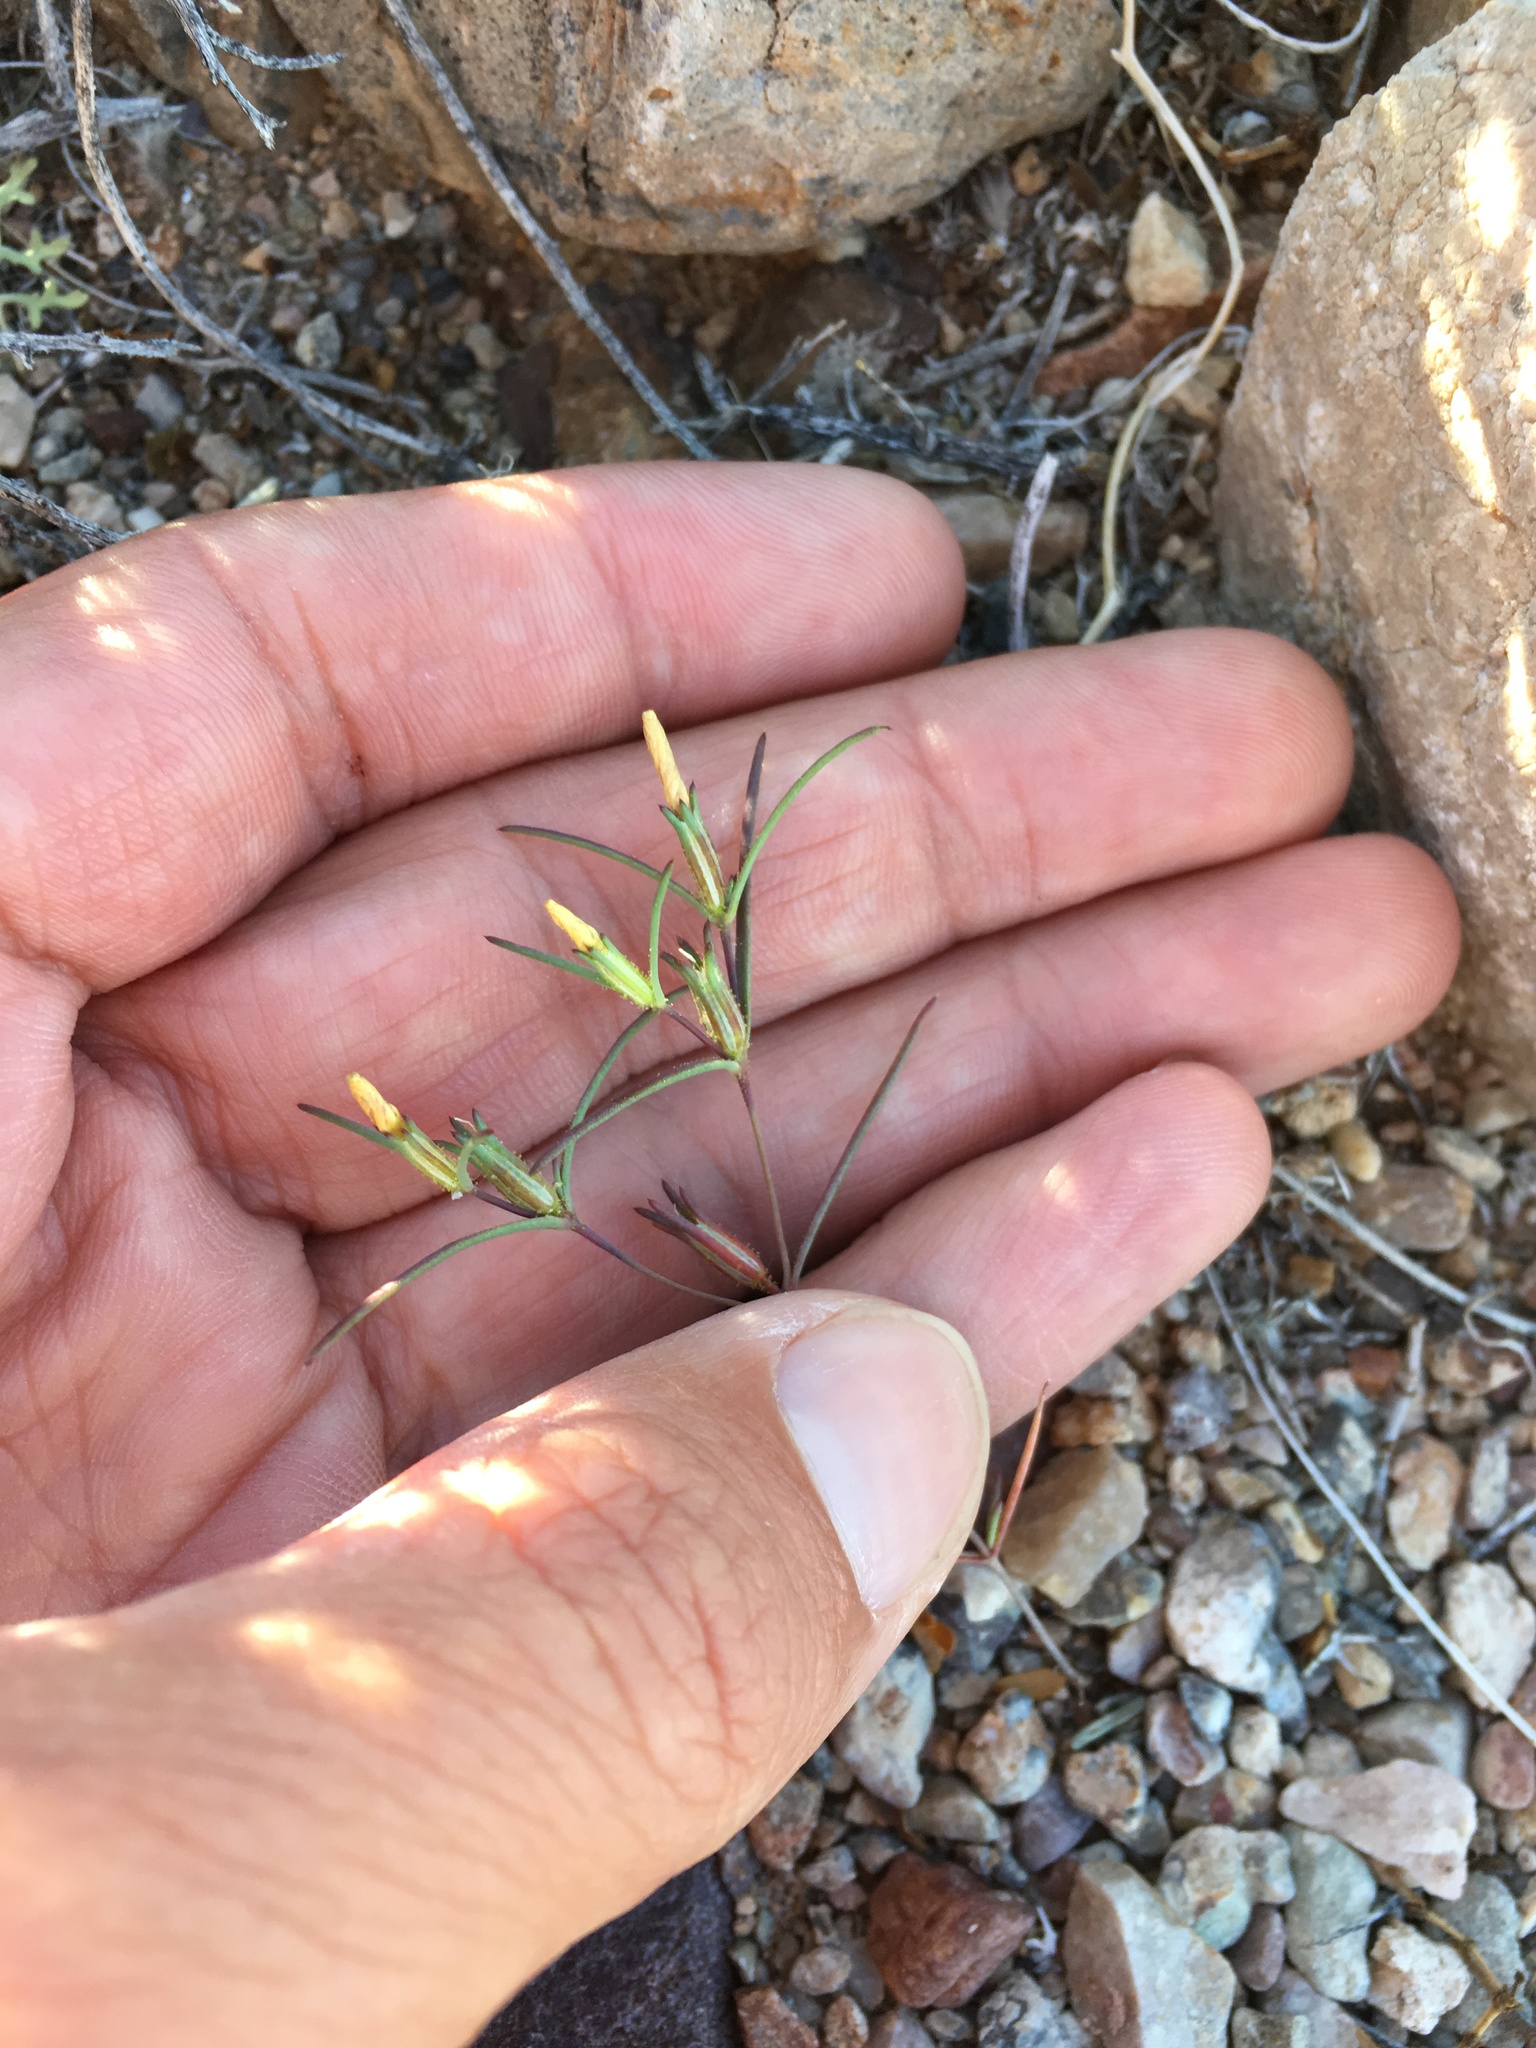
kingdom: Plantae
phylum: Tracheophyta
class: Magnoliopsida
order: Ericales
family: Polemoniaceae
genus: Linanthus
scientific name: Linanthus jonesii
